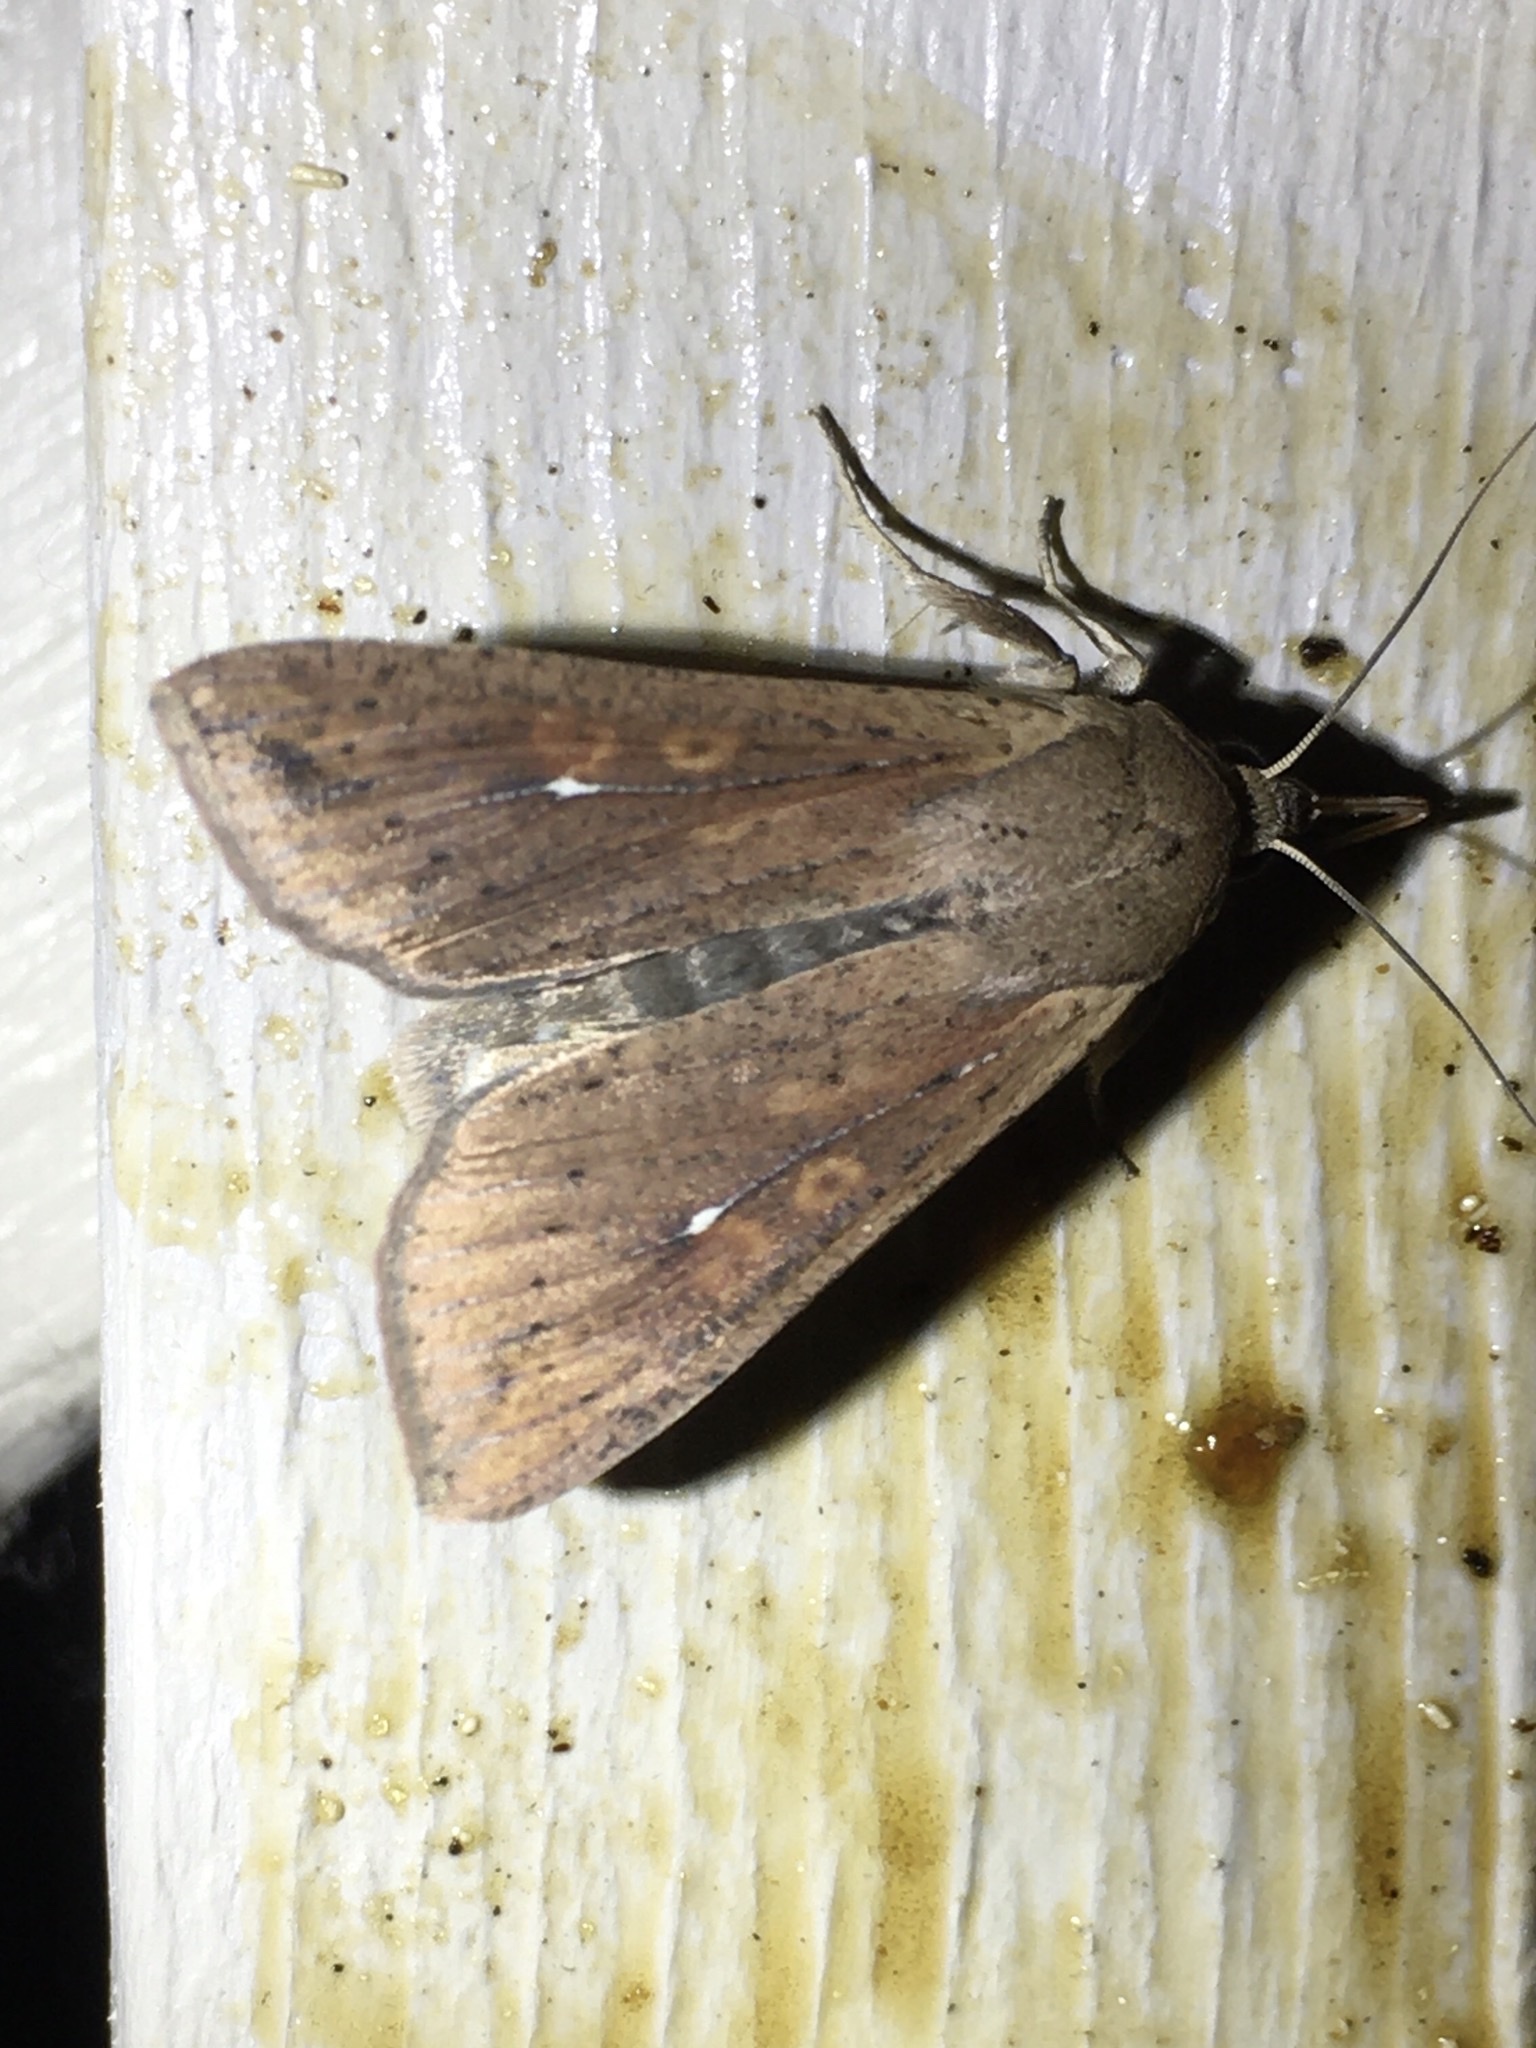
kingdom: Animalia
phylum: Arthropoda
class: Insecta
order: Lepidoptera
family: Noctuidae
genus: Mythimna
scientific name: Mythimna unipuncta
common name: White-speck
